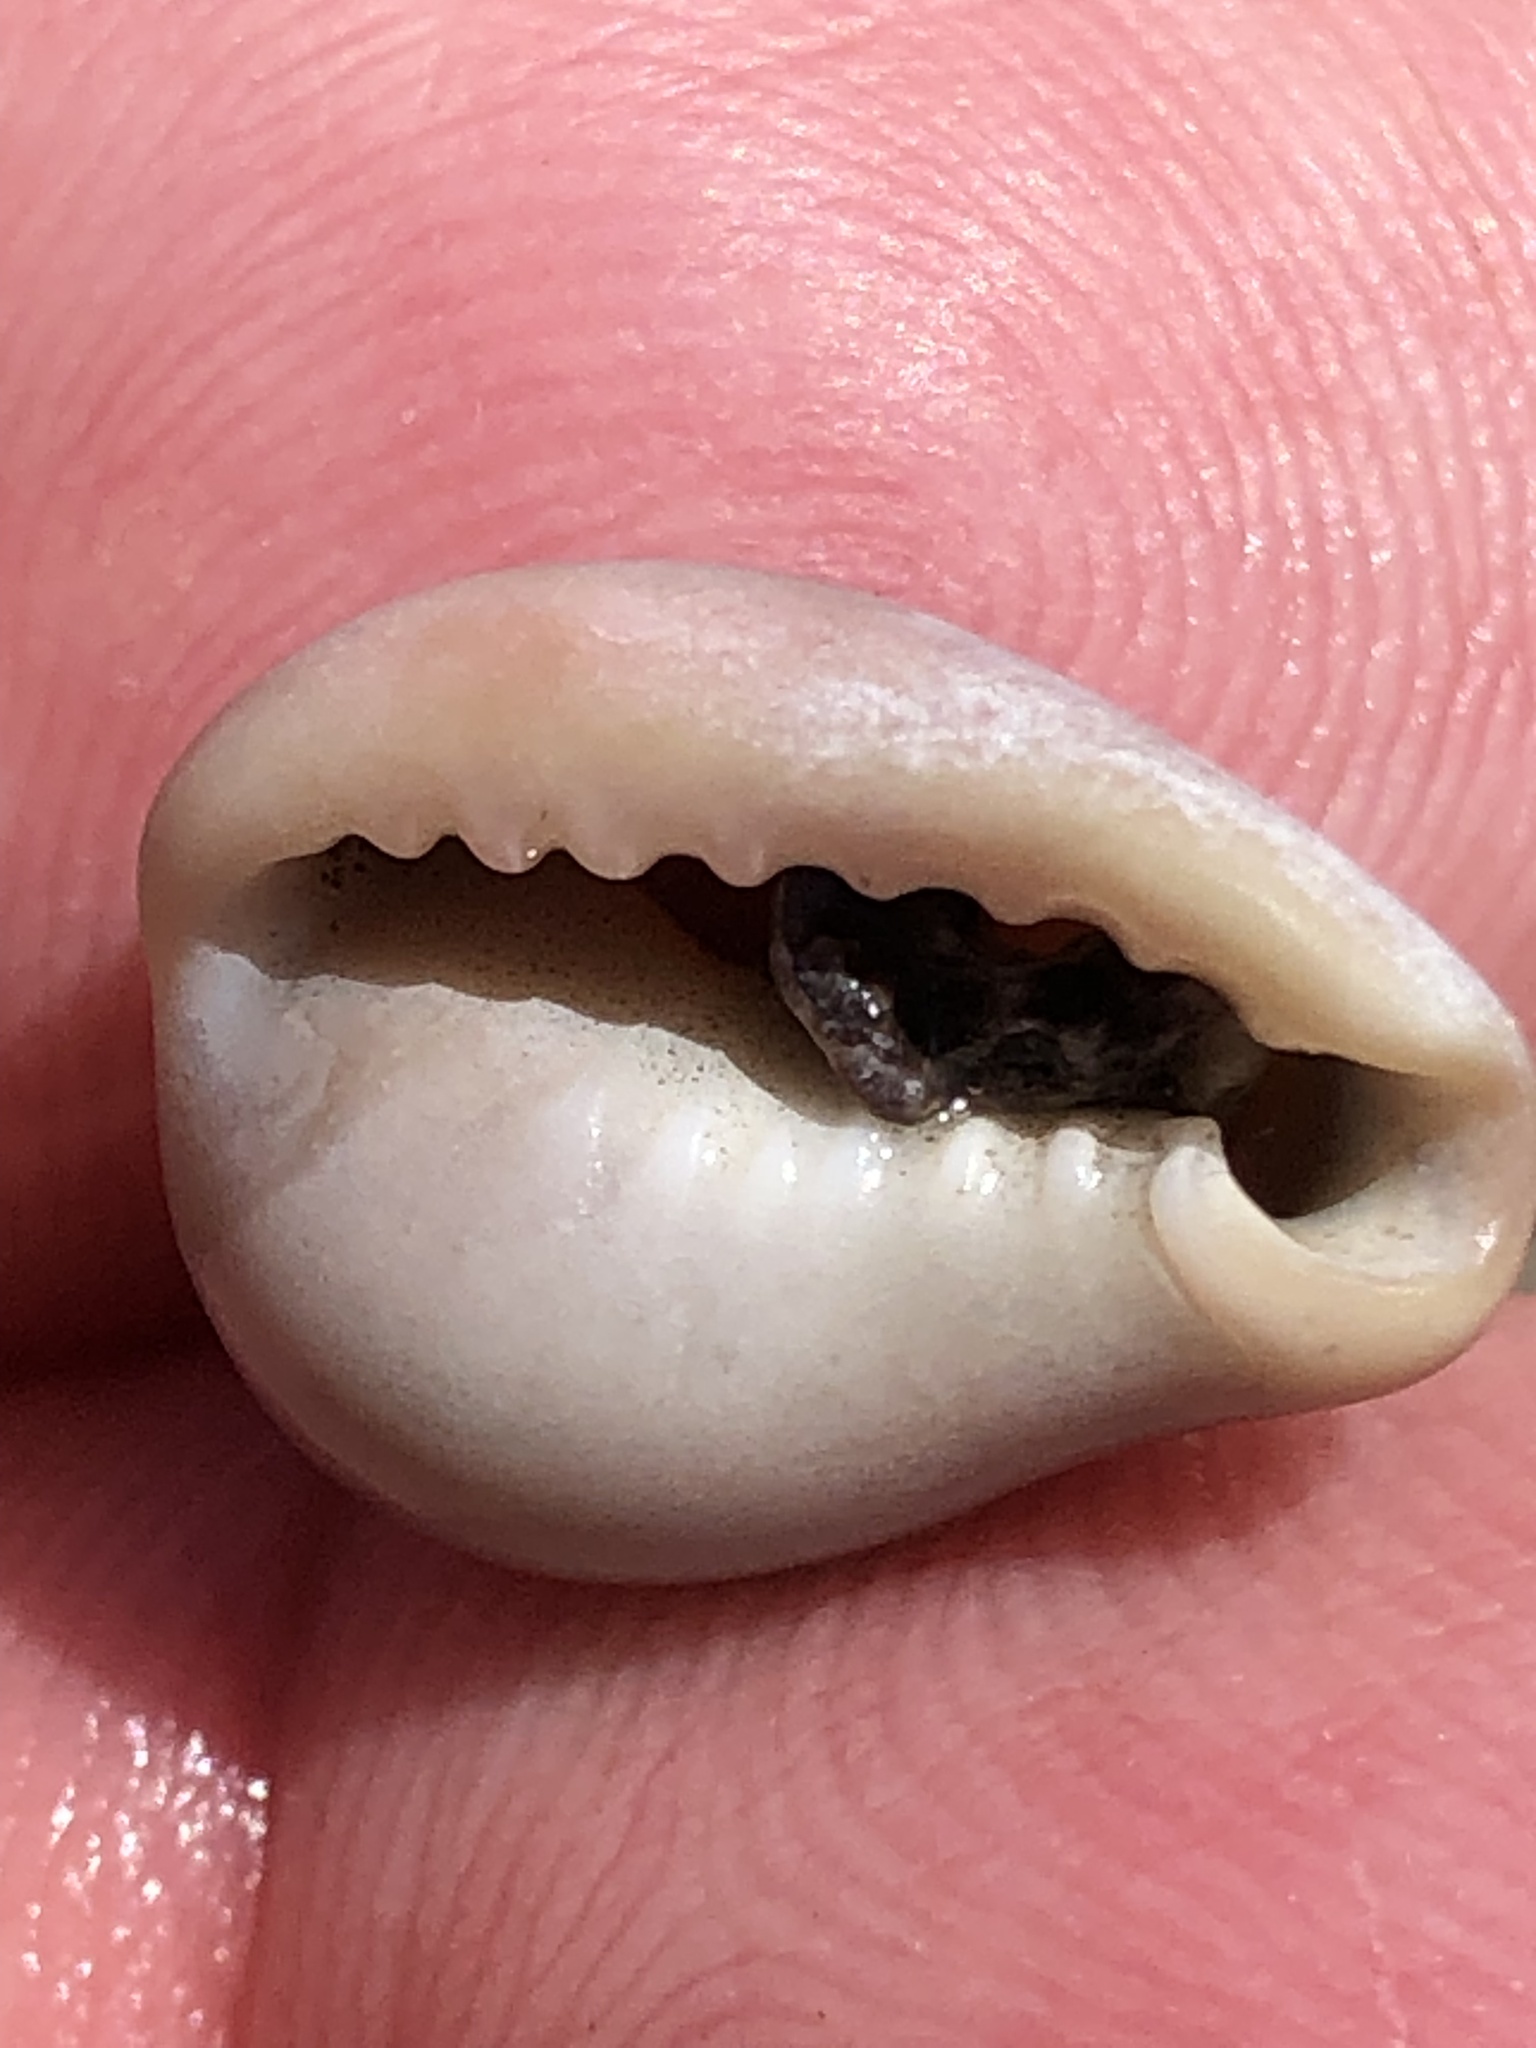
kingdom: Animalia
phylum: Mollusca
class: Gastropoda
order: Littorinimorpha
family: Eratoidae
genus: Hespererato
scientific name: Hespererato vitellina
